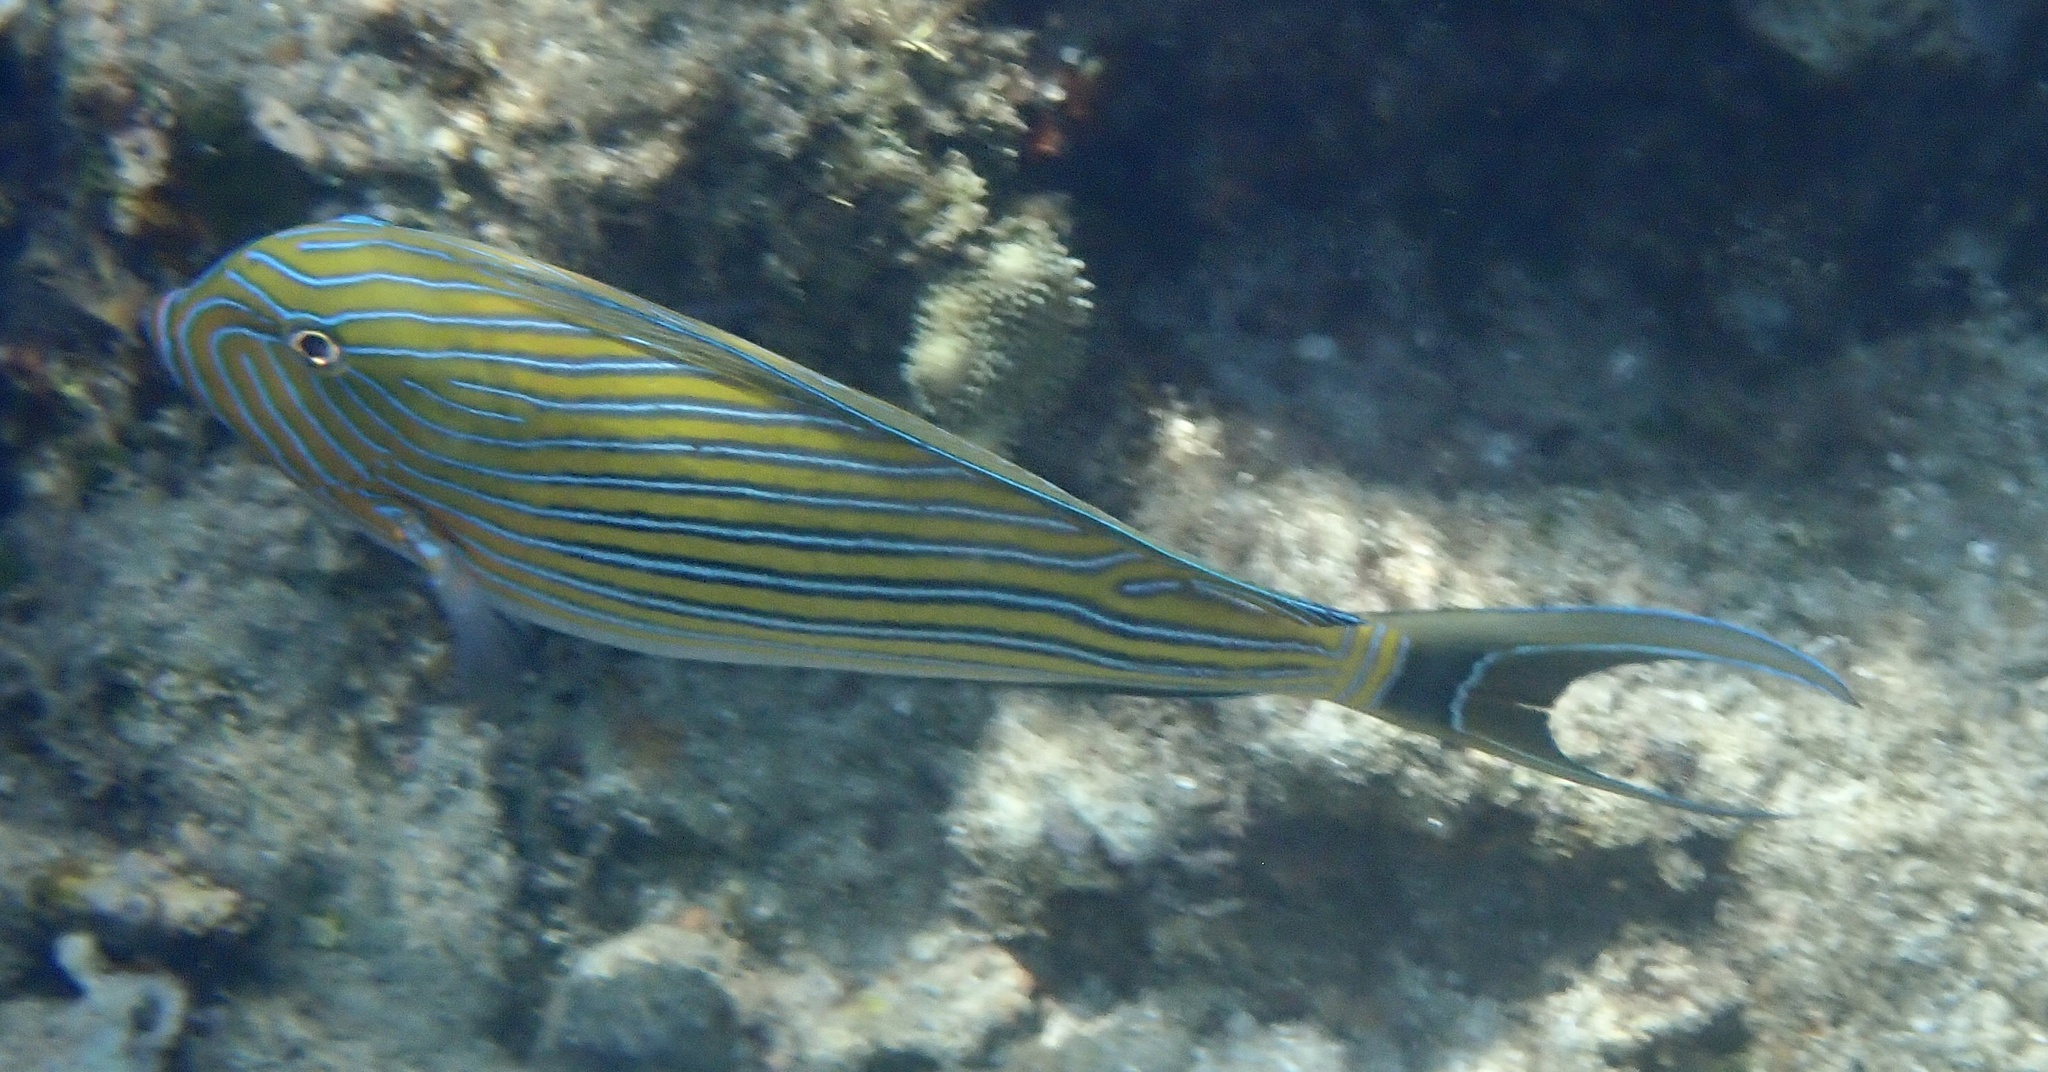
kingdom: Animalia
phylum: Chordata
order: Perciformes
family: Acanthuridae
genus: Acanthurus
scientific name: Acanthurus lineatus
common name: Striped surgeonfish
